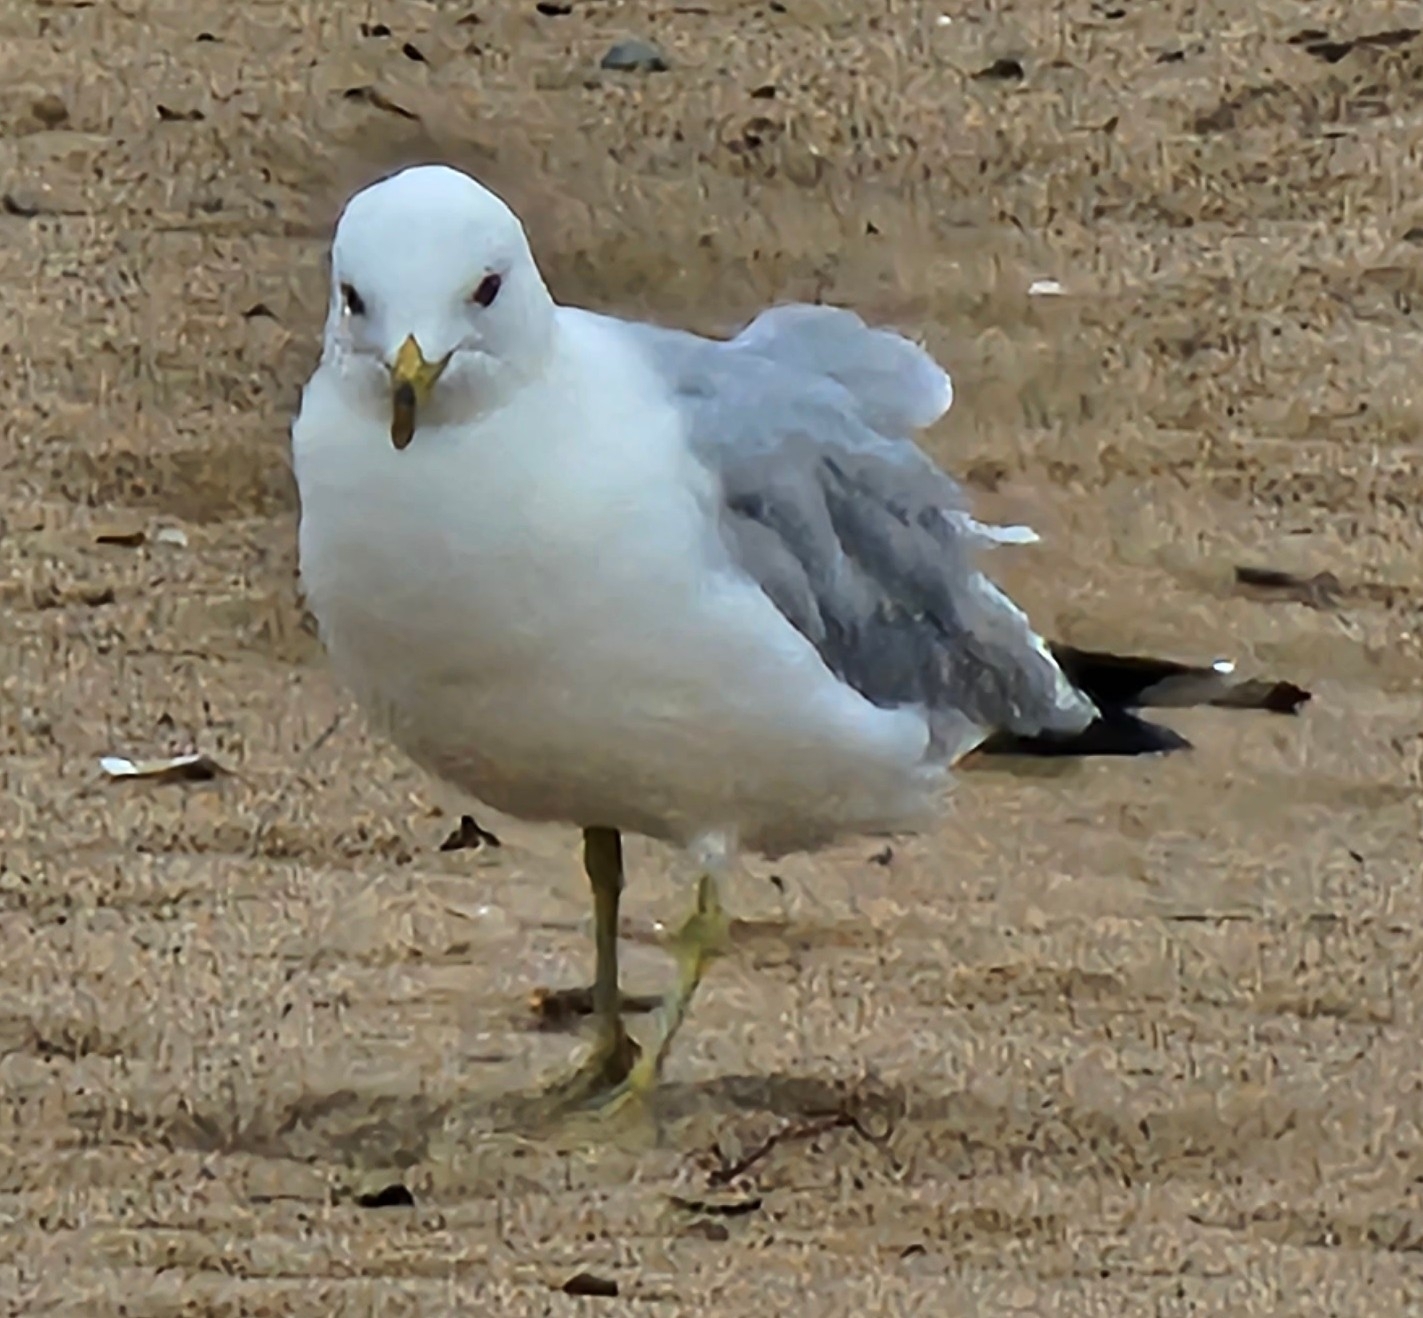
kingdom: Animalia
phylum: Chordata
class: Aves
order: Charadriiformes
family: Laridae
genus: Larus
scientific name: Larus delawarensis
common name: Ring-billed gull
